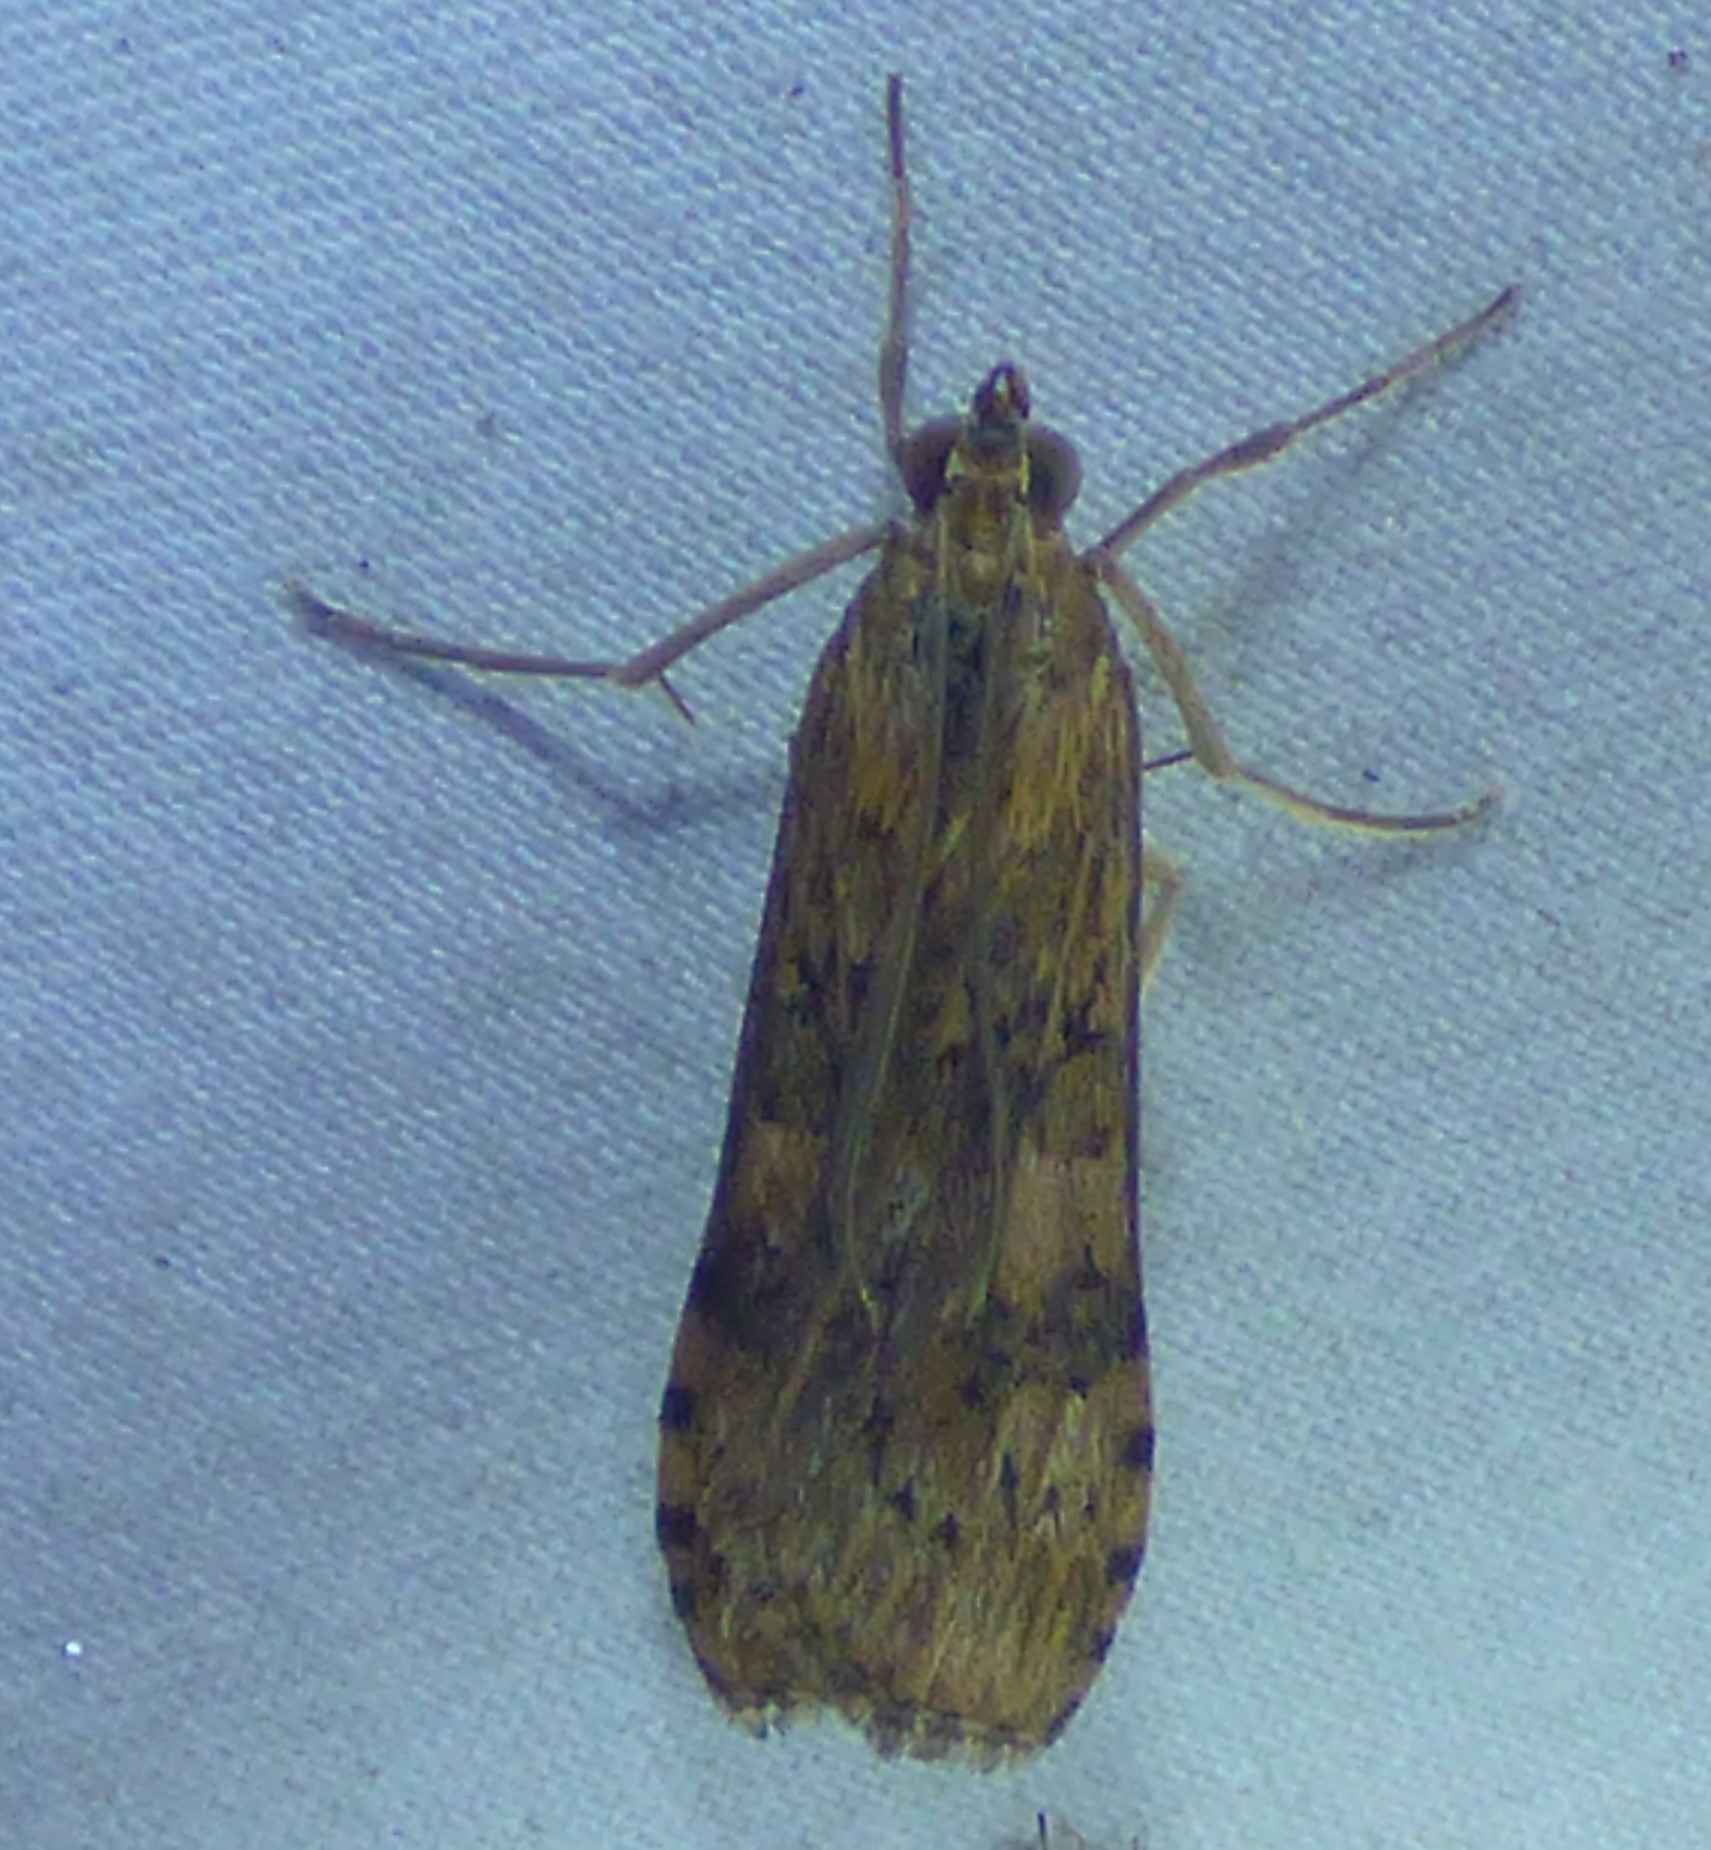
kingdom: Animalia
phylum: Arthropoda
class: Insecta
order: Lepidoptera
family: Crambidae
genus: Nomophila
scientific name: Nomophila nearctica
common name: American rush veneer
